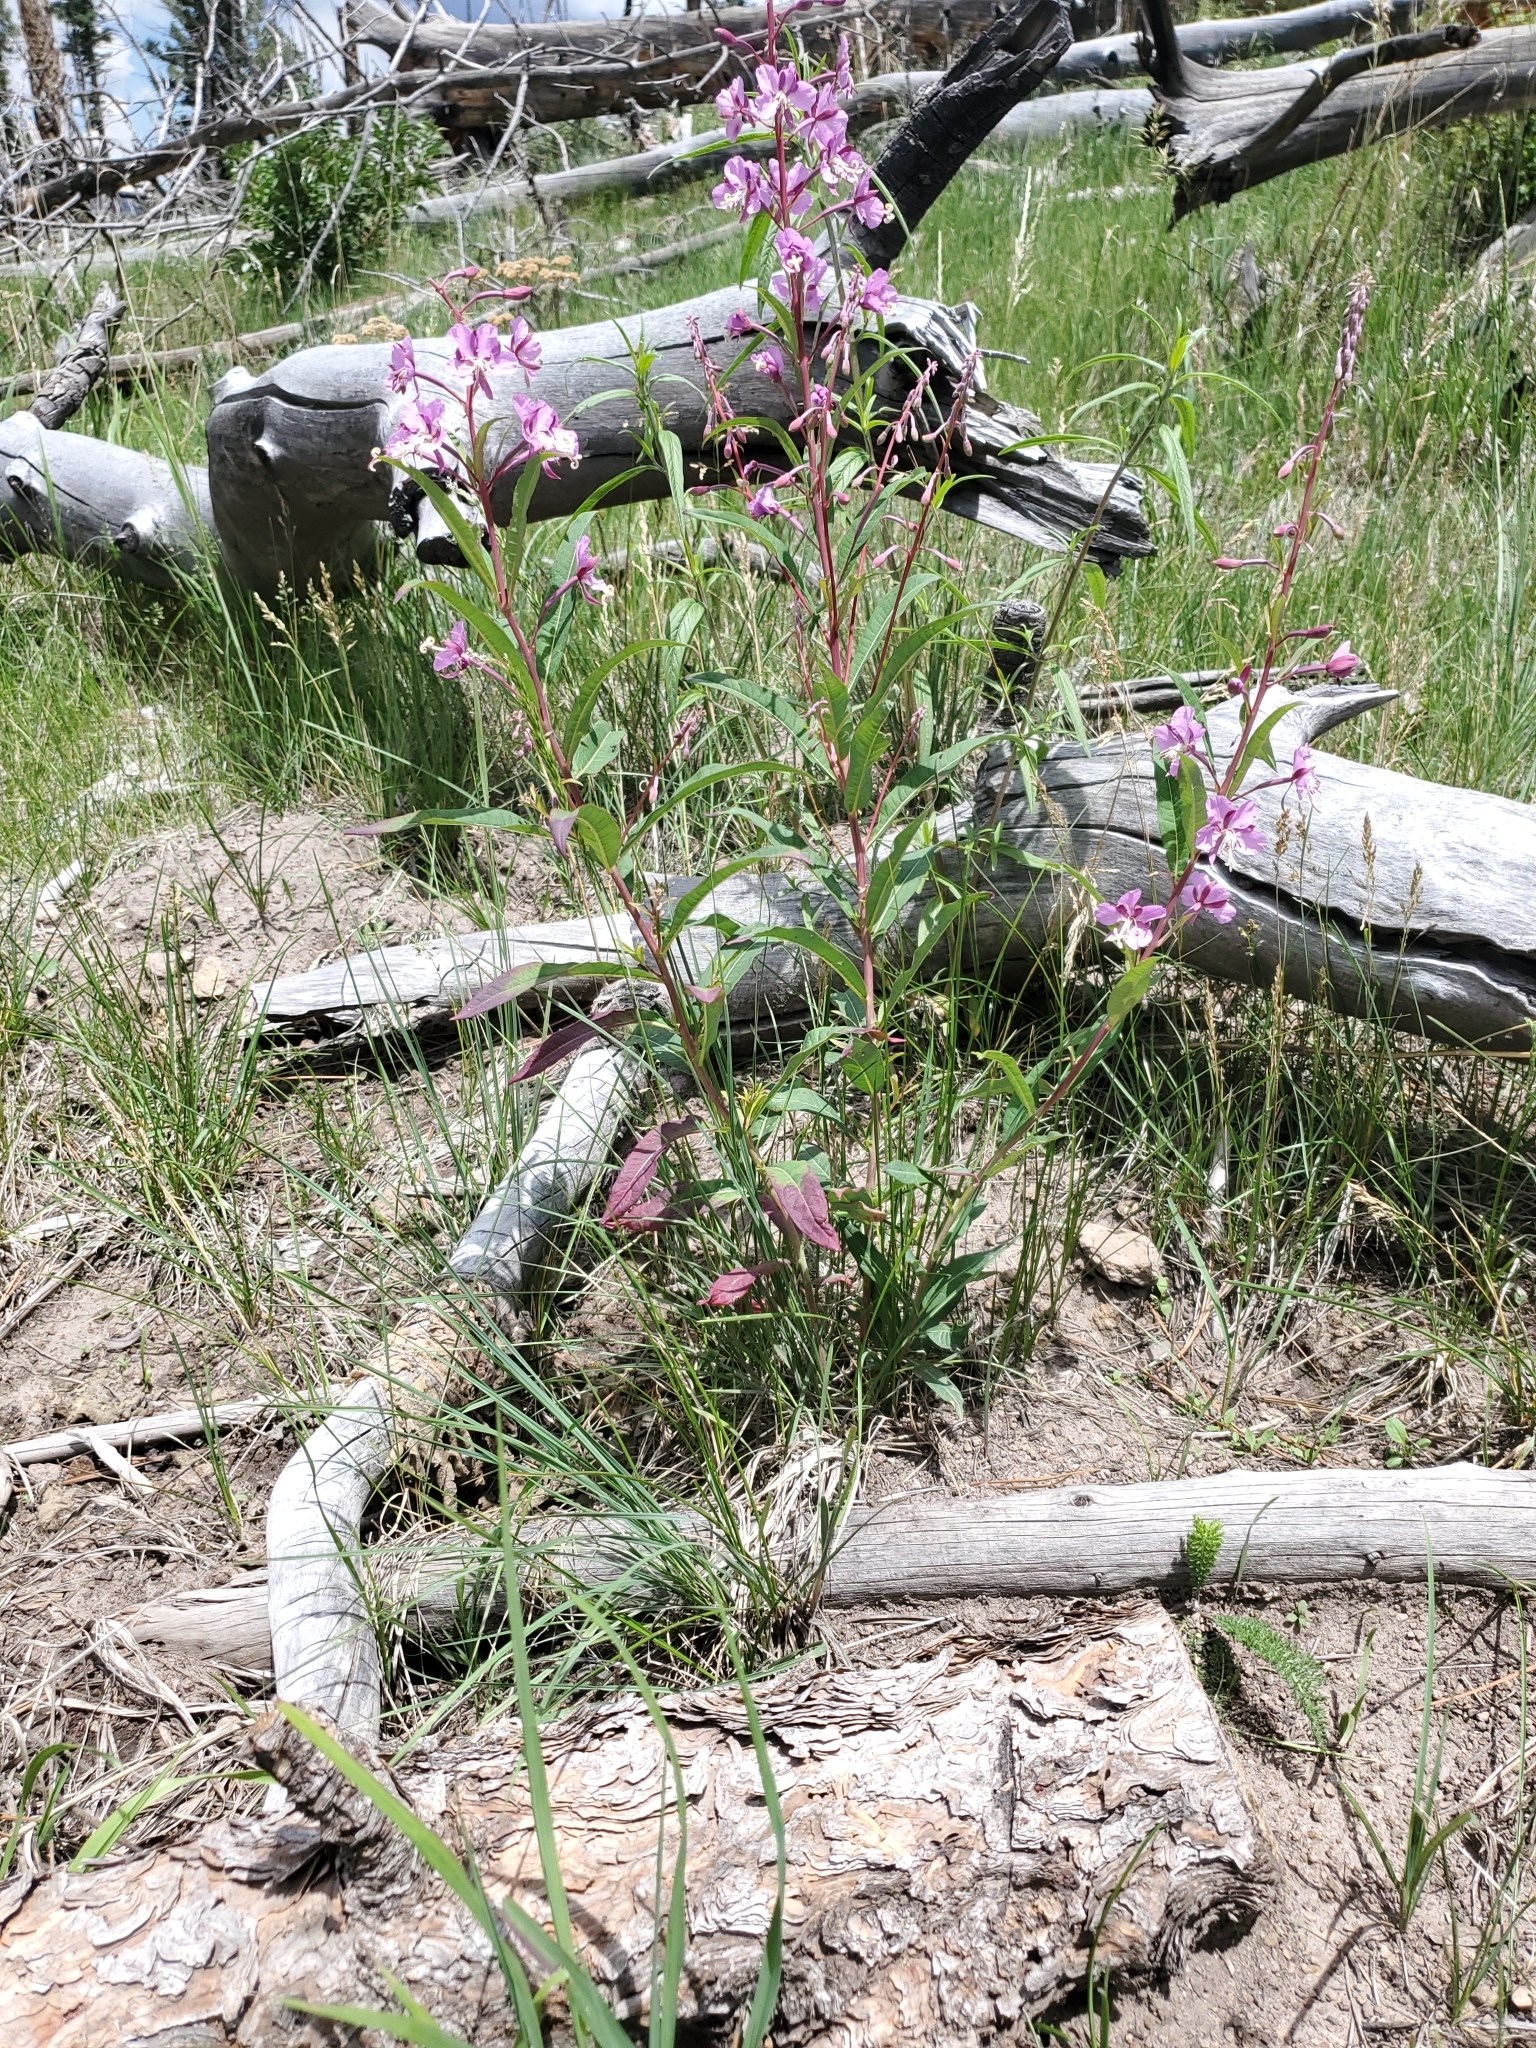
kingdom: Plantae
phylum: Tracheophyta
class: Magnoliopsida
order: Myrtales
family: Onagraceae
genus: Chamaenerion
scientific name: Chamaenerion angustifolium
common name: Fireweed
